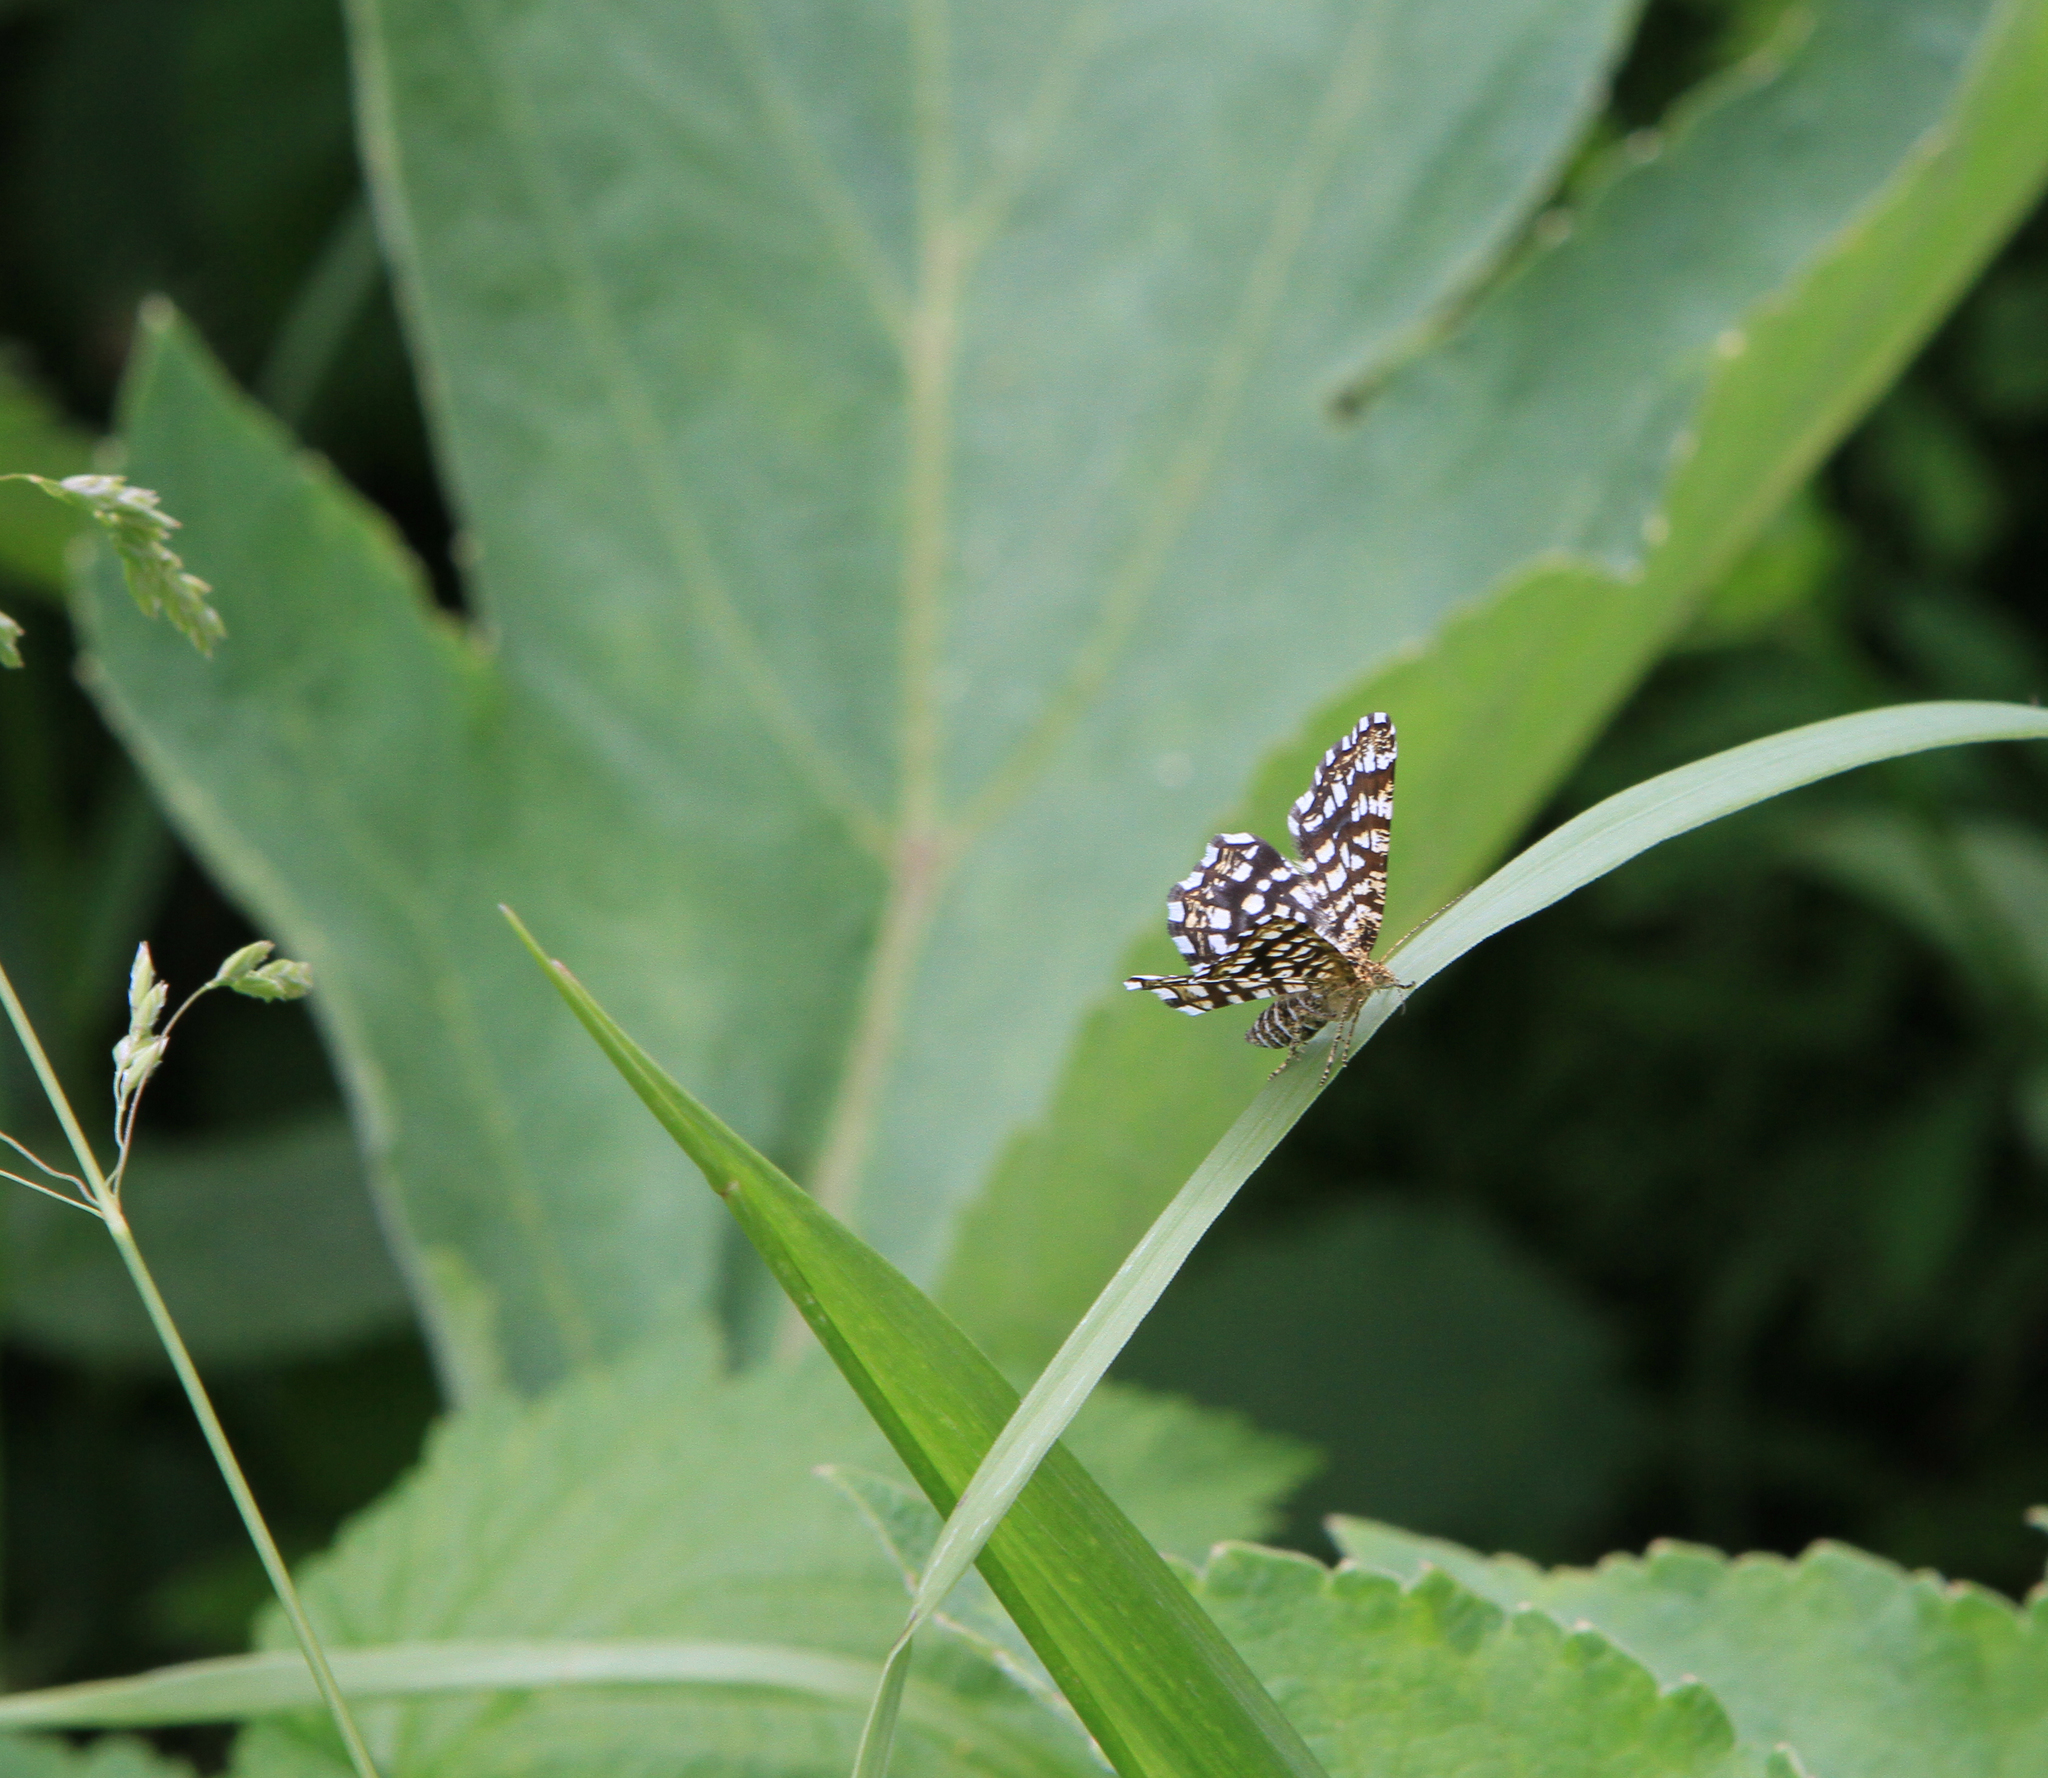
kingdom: Animalia
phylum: Arthropoda
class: Insecta
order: Lepidoptera
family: Geometridae
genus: Chiasmia
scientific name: Chiasmia clathrata
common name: Latticed heath
